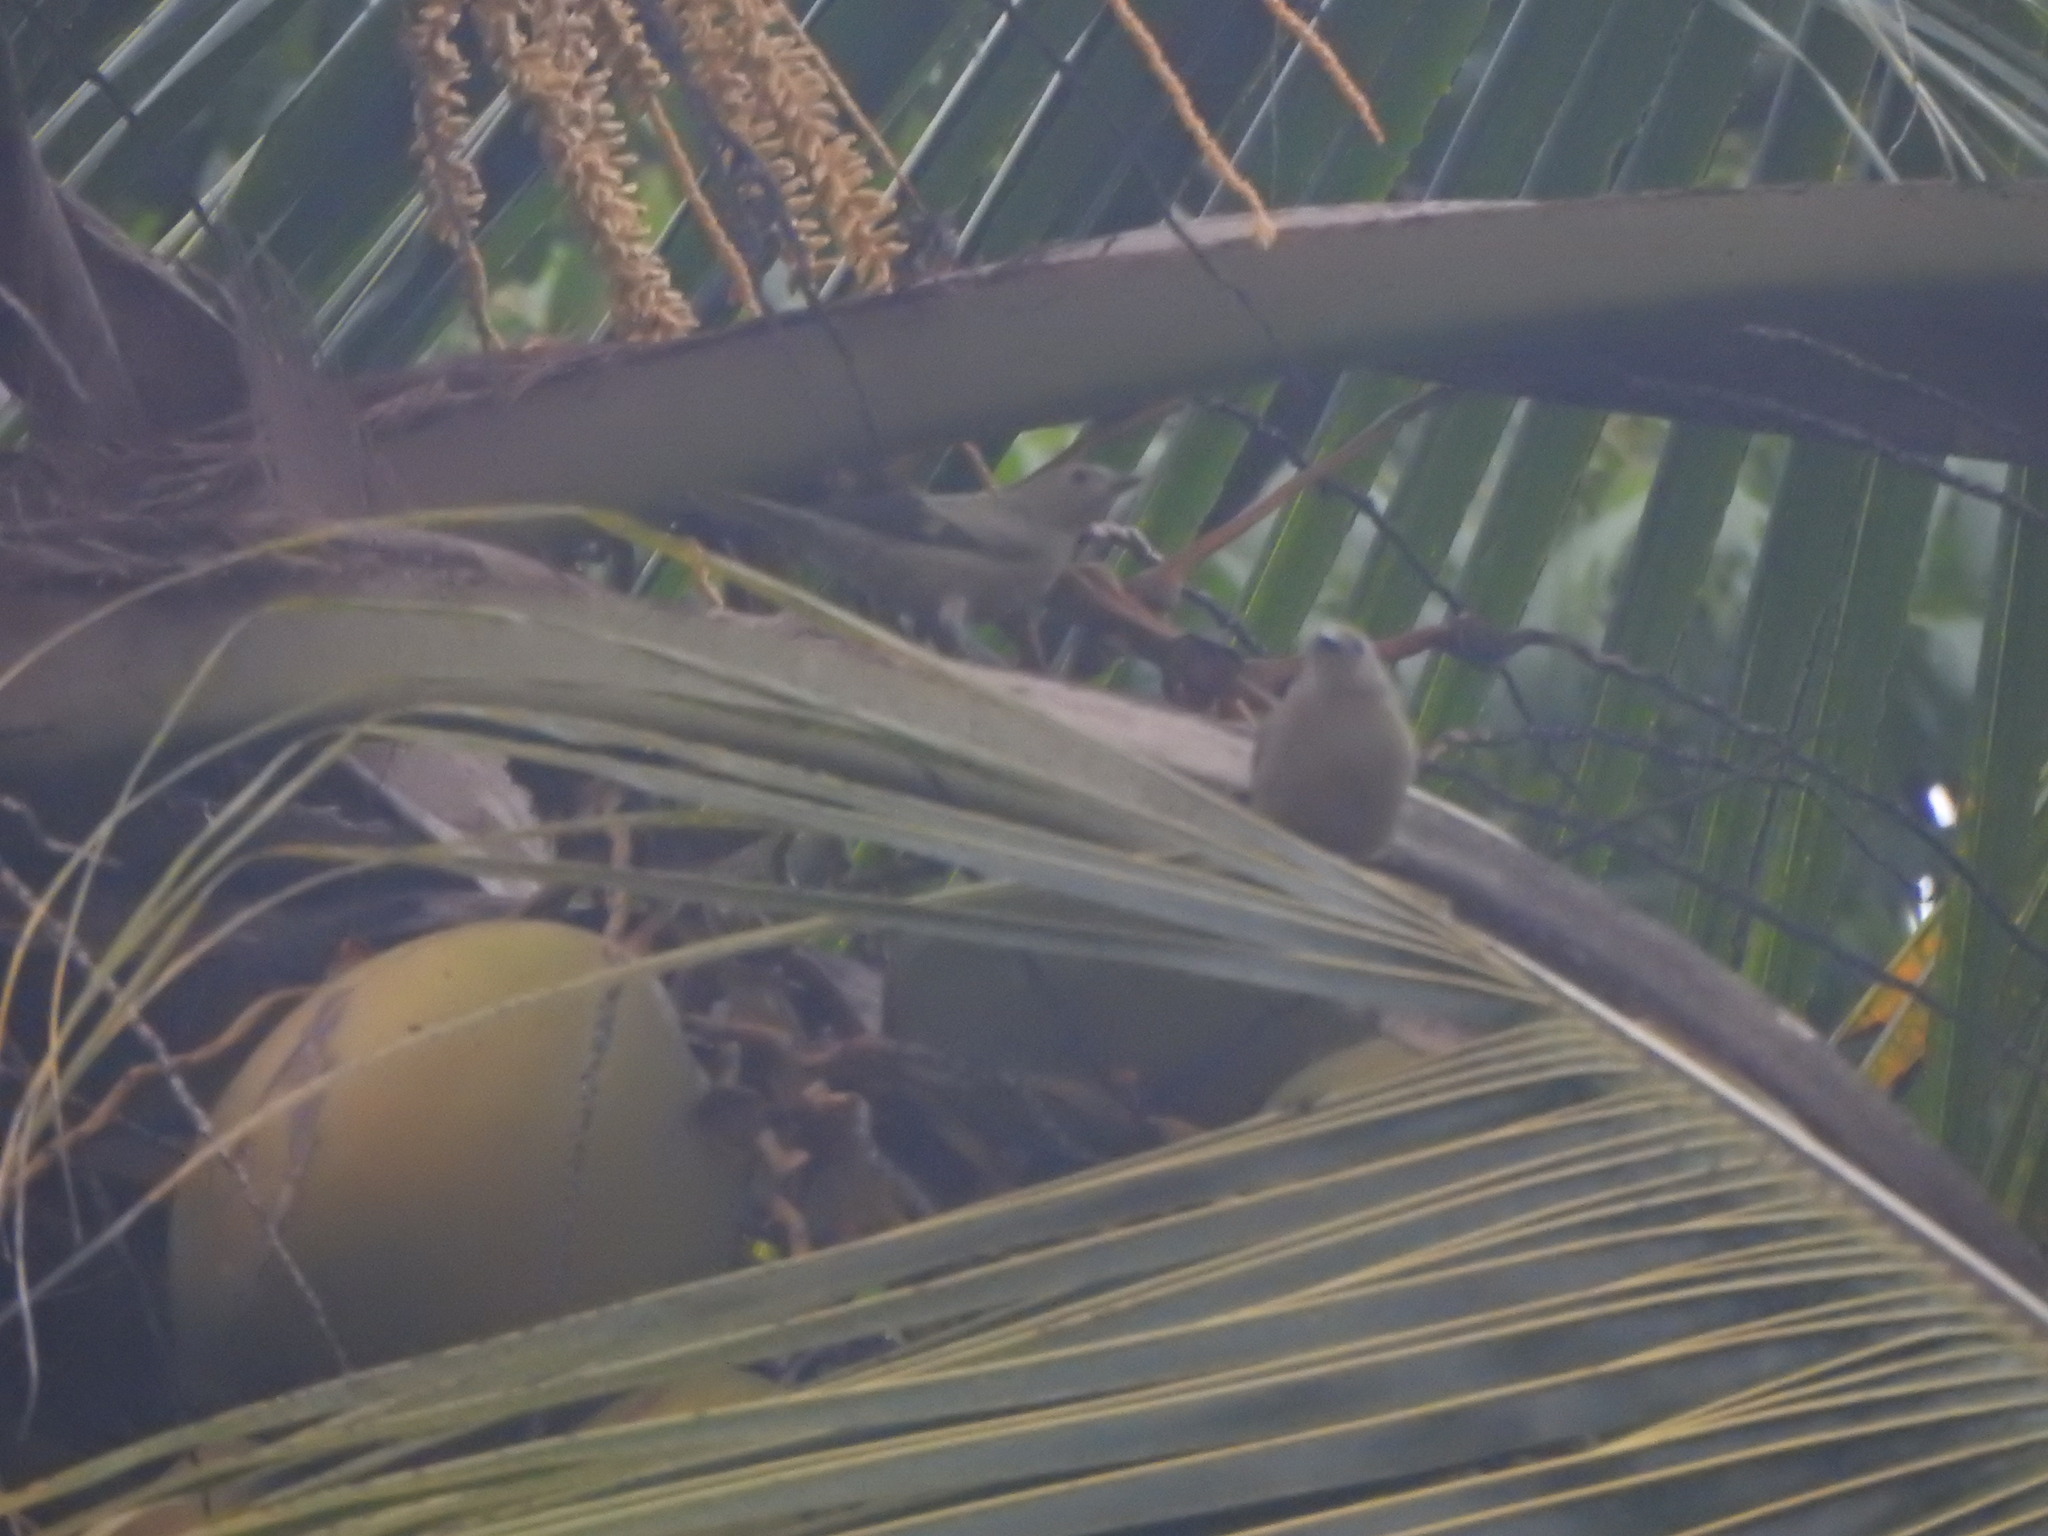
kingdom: Animalia
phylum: Chordata
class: Aves
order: Passeriformes
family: Thraupidae
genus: Thraupis
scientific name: Thraupis palmarum
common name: Palm tanager
